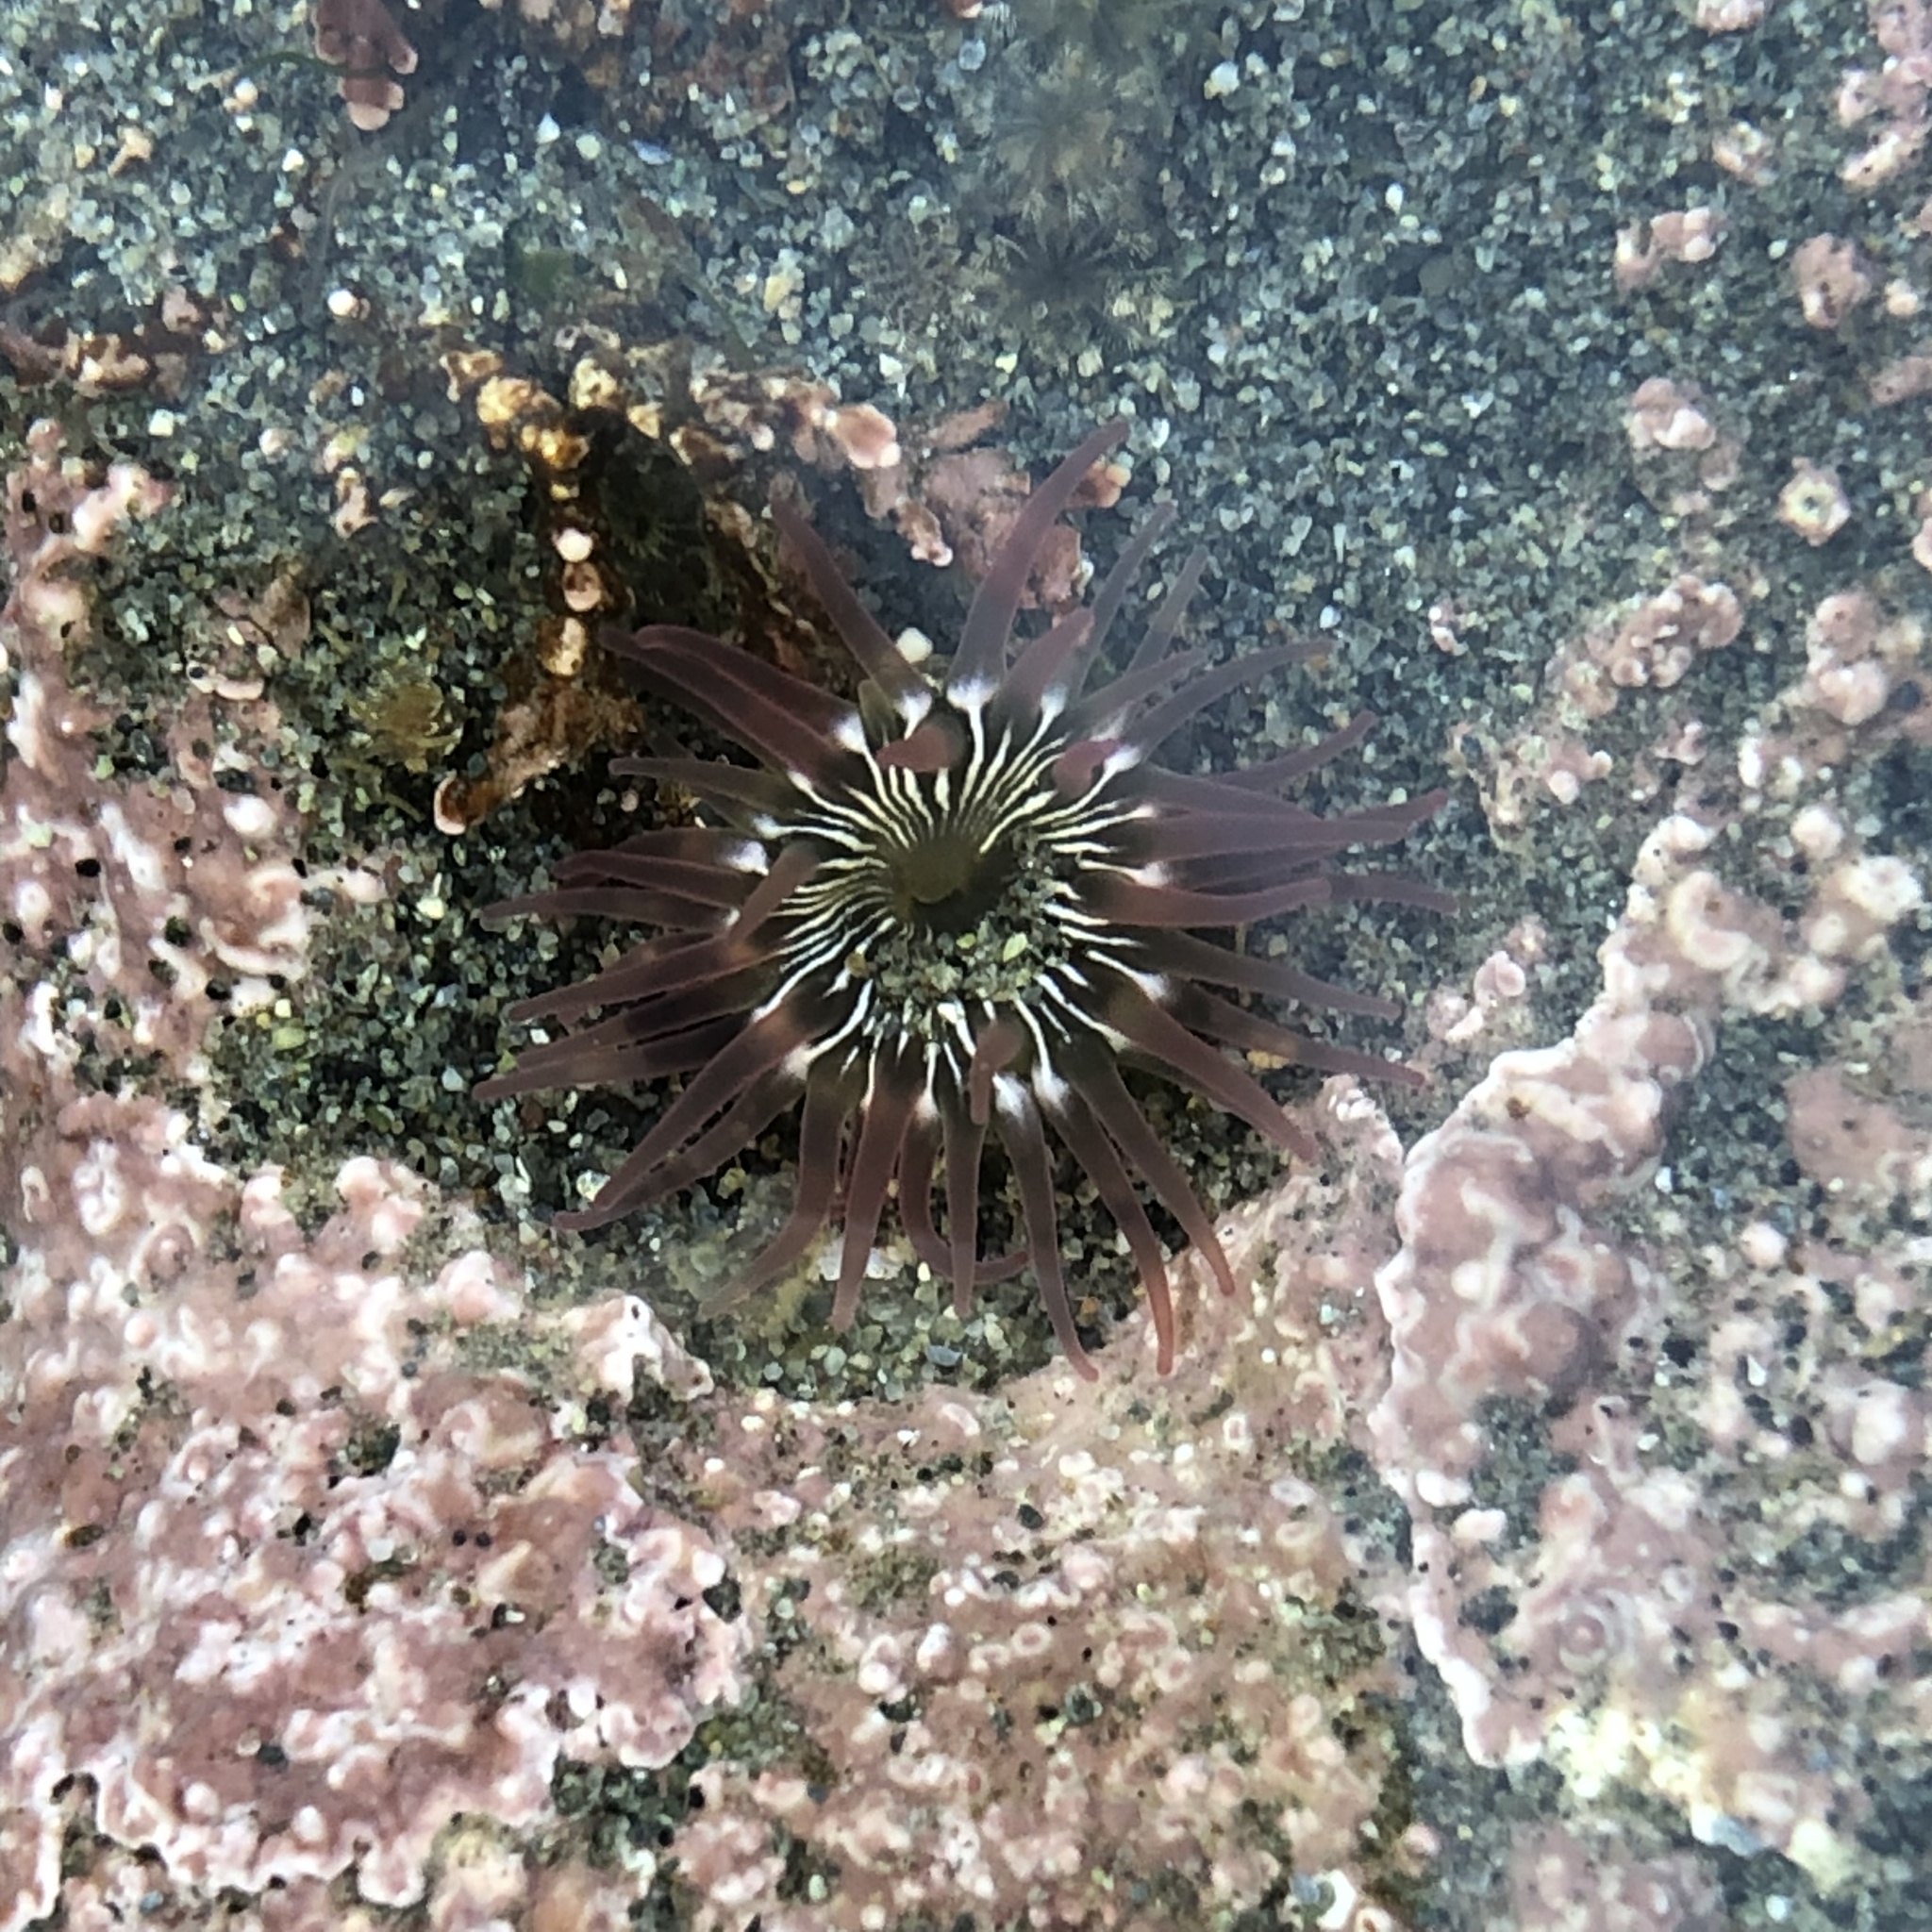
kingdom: Animalia
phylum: Cnidaria
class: Anthozoa
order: Actiniaria
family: Actiniidae
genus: Aulactinia
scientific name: Aulactinia incubans
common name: Incubating anemone
